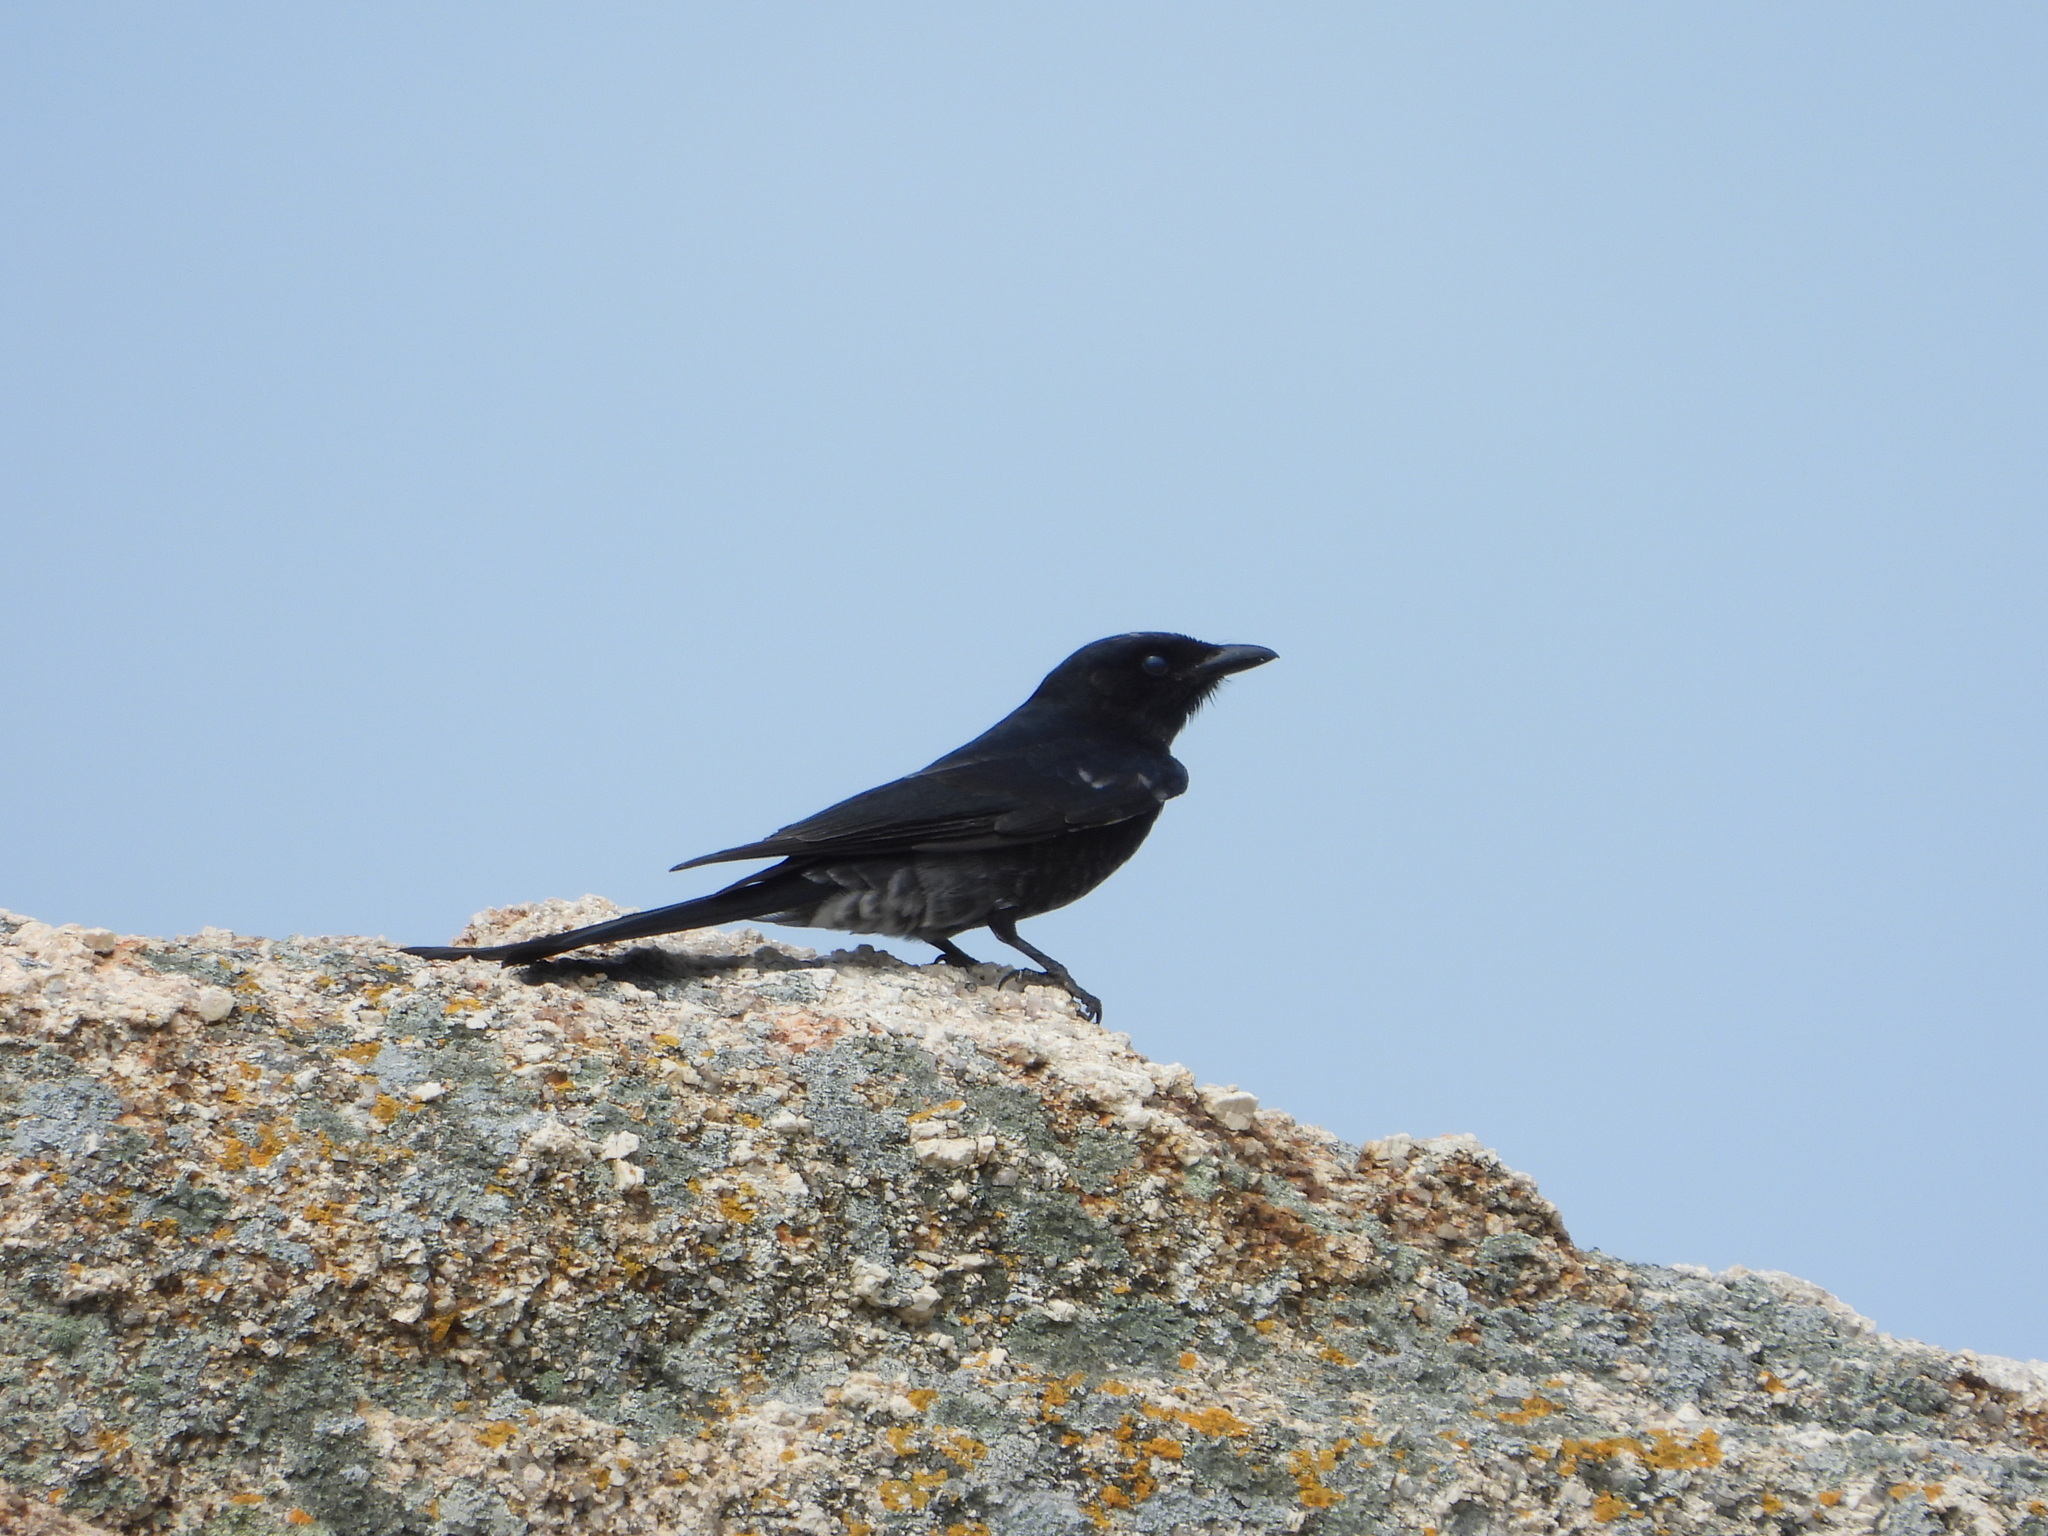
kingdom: Animalia
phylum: Chordata
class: Aves
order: Passeriformes
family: Dicruridae
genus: Dicrurus
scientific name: Dicrurus macrocercus
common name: Black drongo
